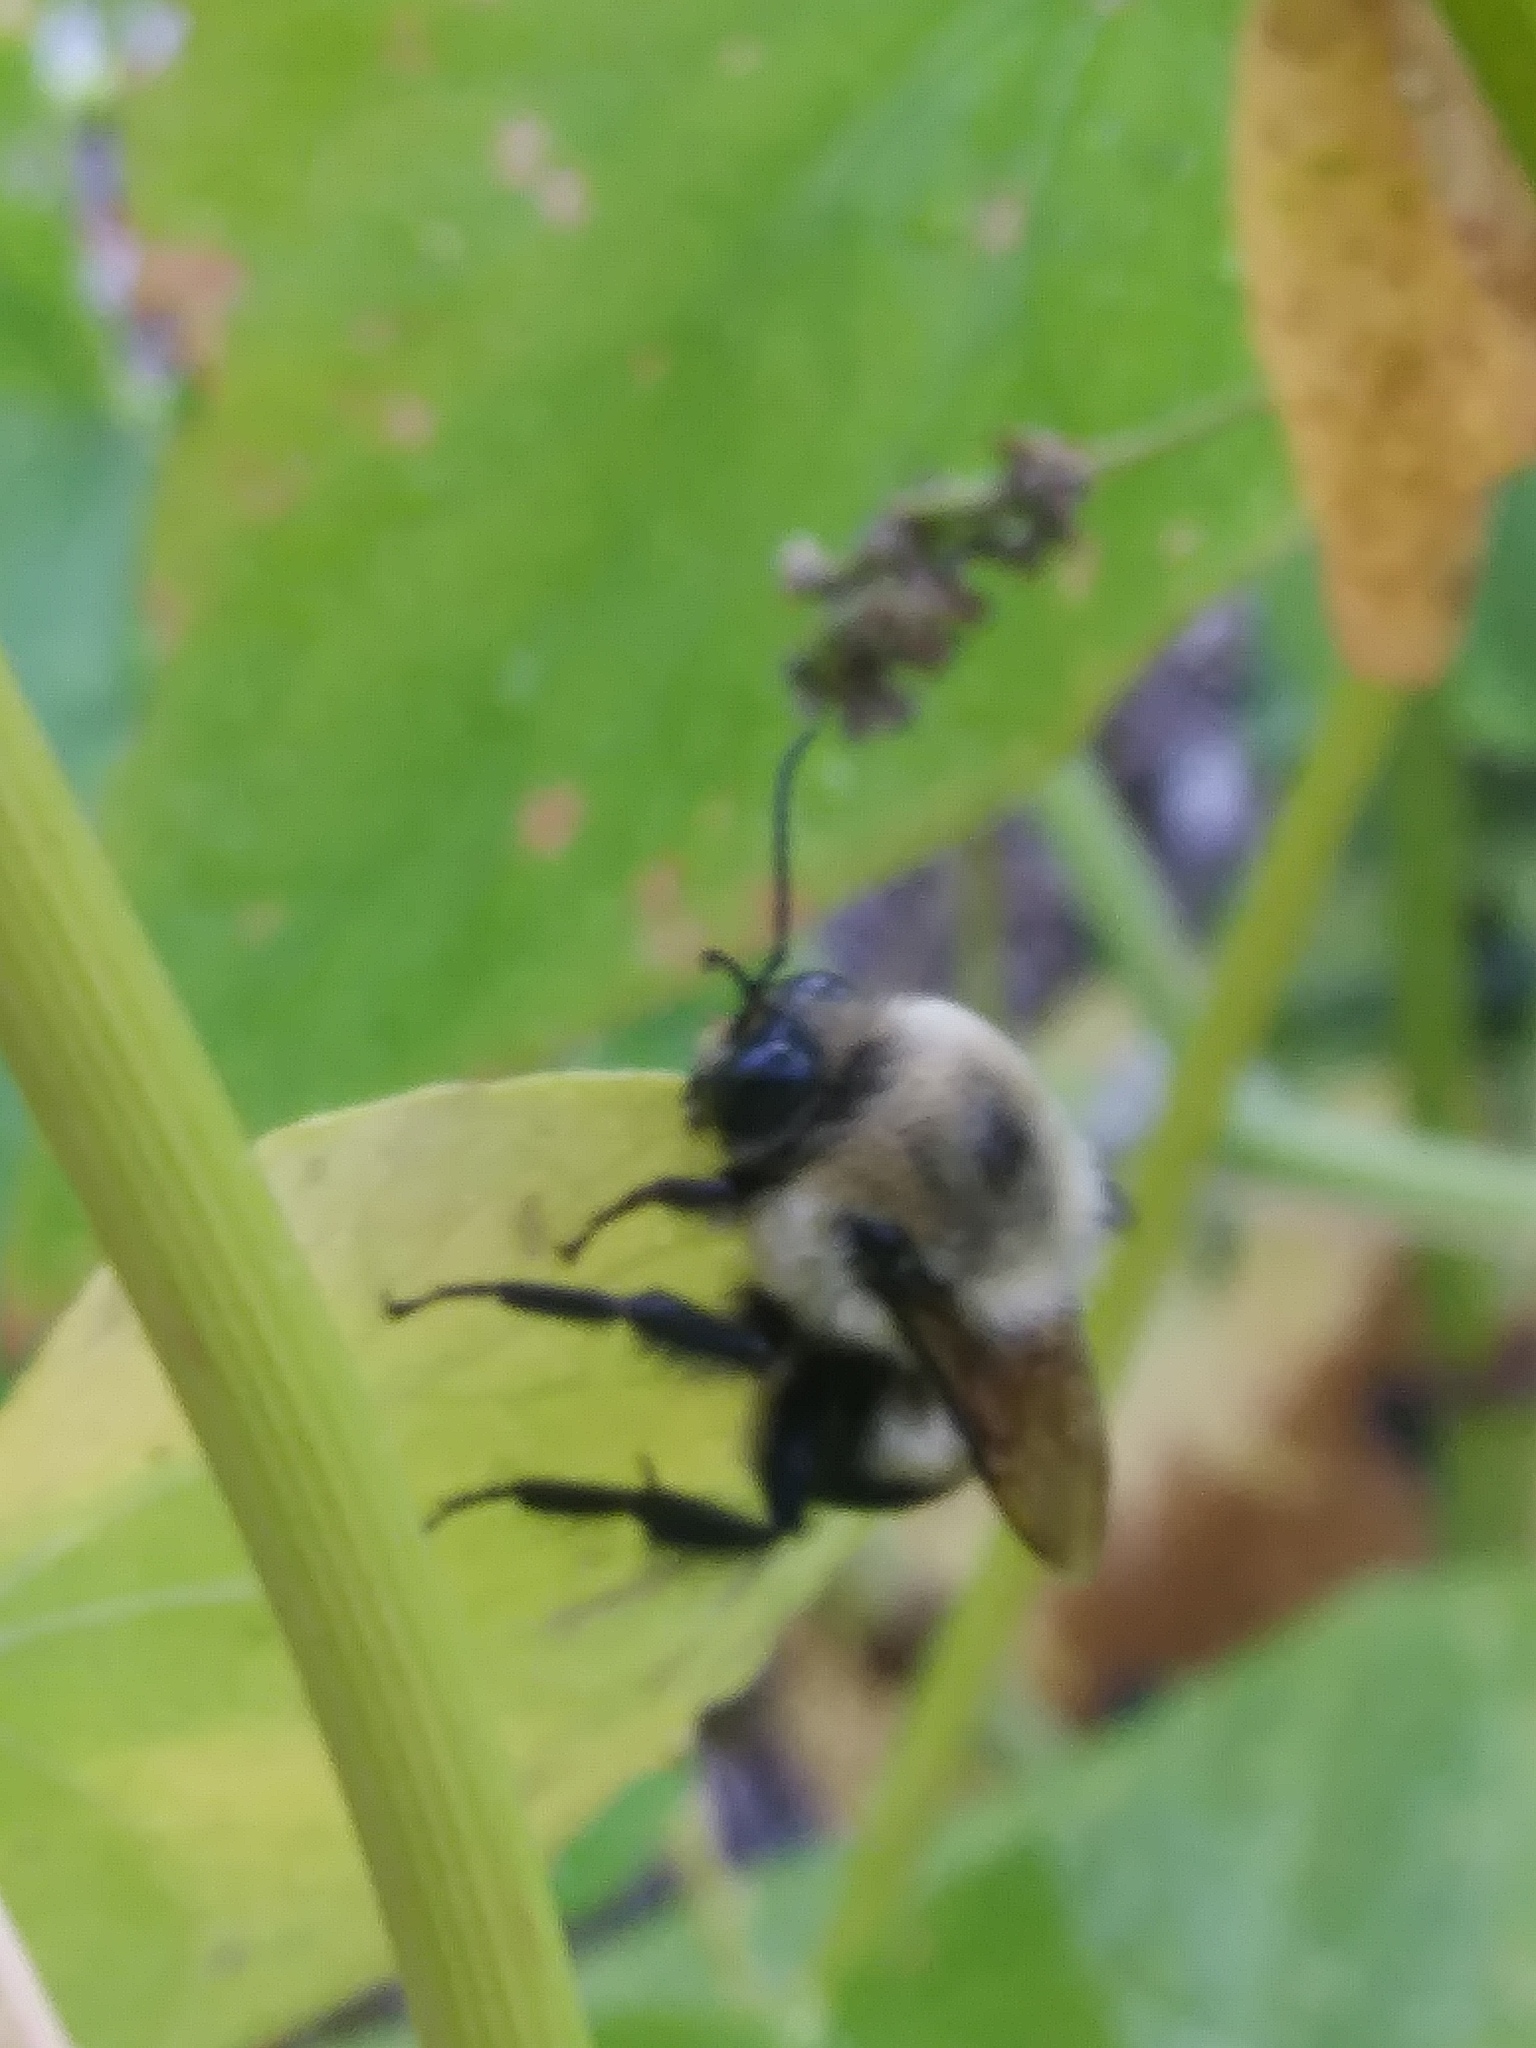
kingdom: Animalia
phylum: Arthropoda
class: Insecta
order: Hymenoptera
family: Apidae
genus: Bombus
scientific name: Bombus griseocollis
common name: Brown-belted bumble bee
